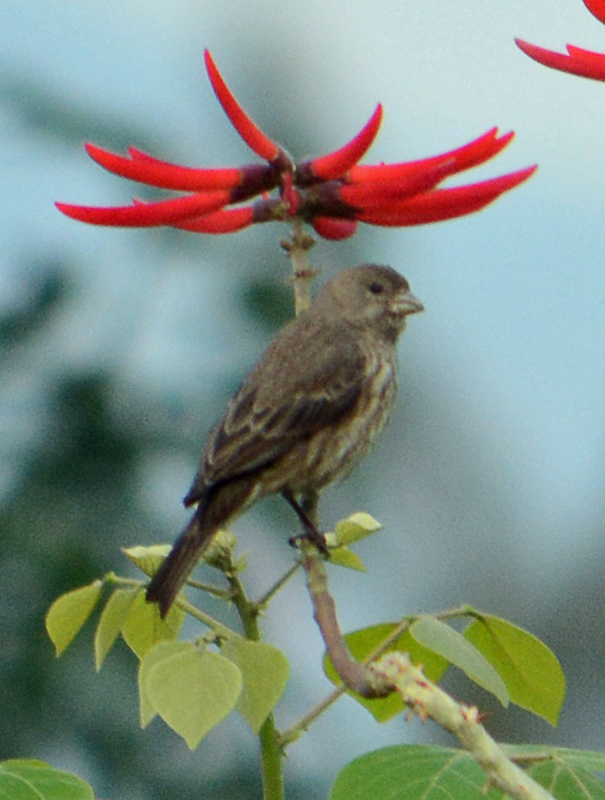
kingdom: Animalia
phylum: Chordata
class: Aves
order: Passeriformes
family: Fringillidae
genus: Haemorhous
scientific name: Haemorhous mexicanus
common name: House finch
